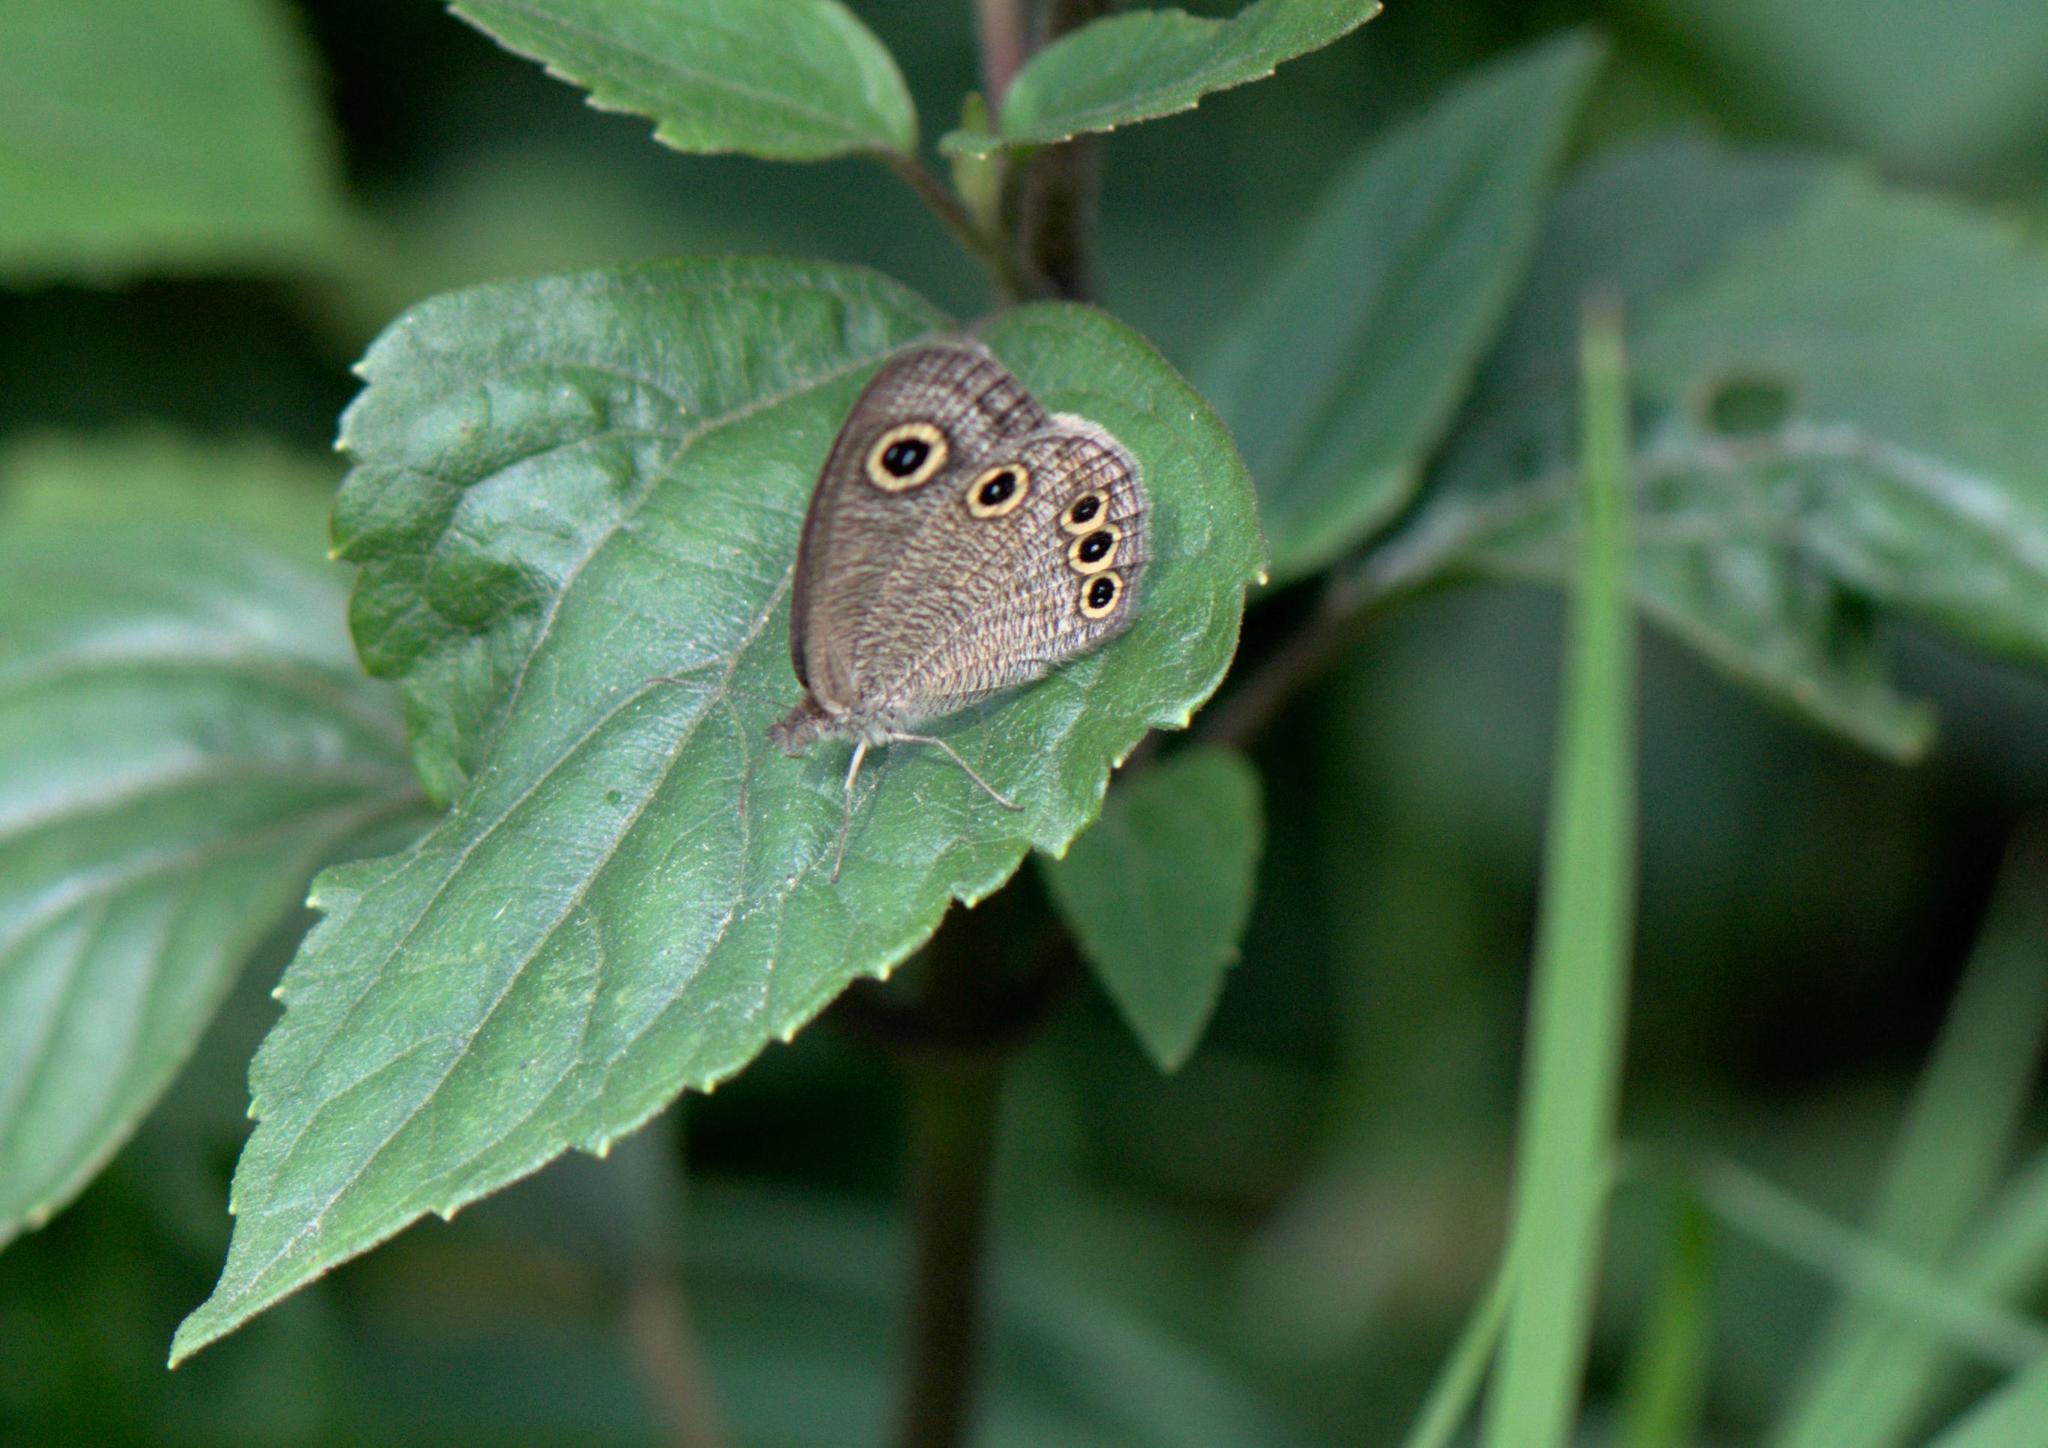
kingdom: Animalia
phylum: Arthropoda
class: Insecta
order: Lepidoptera
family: Nymphalidae
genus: Ypthima
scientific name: Ypthima huebneri
